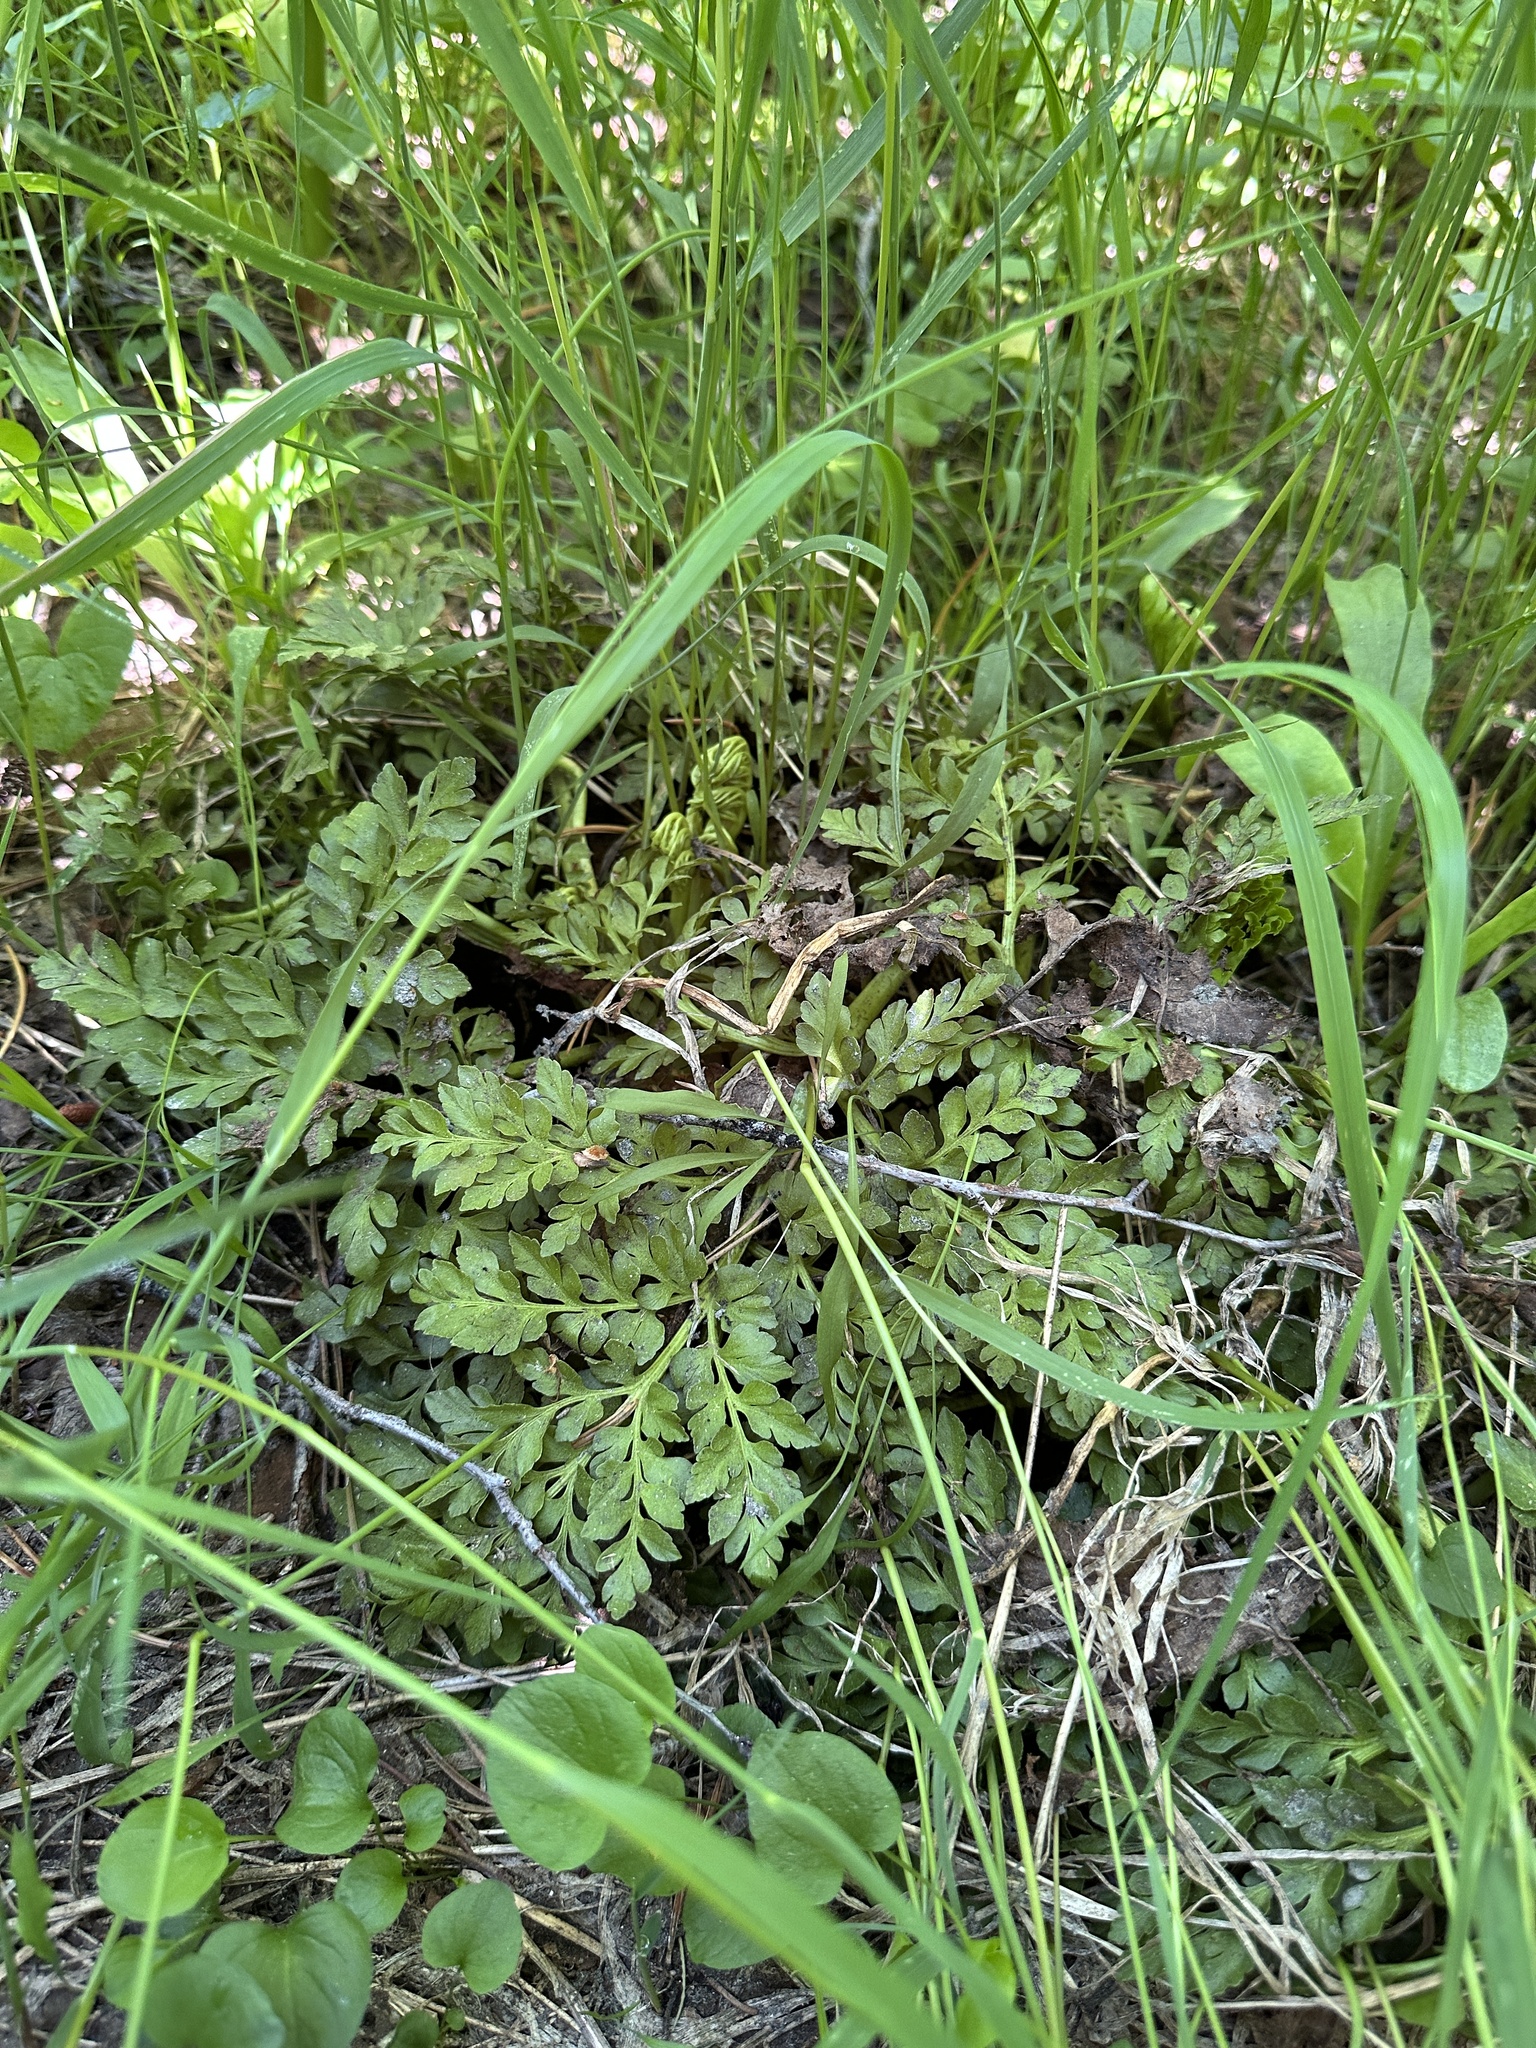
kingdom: Plantae
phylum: Tracheophyta
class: Polypodiopsida
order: Ophioglossales
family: Ophioglossaceae
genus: Sceptridium
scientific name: Sceptridium multifidum
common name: Leathery grape fern
